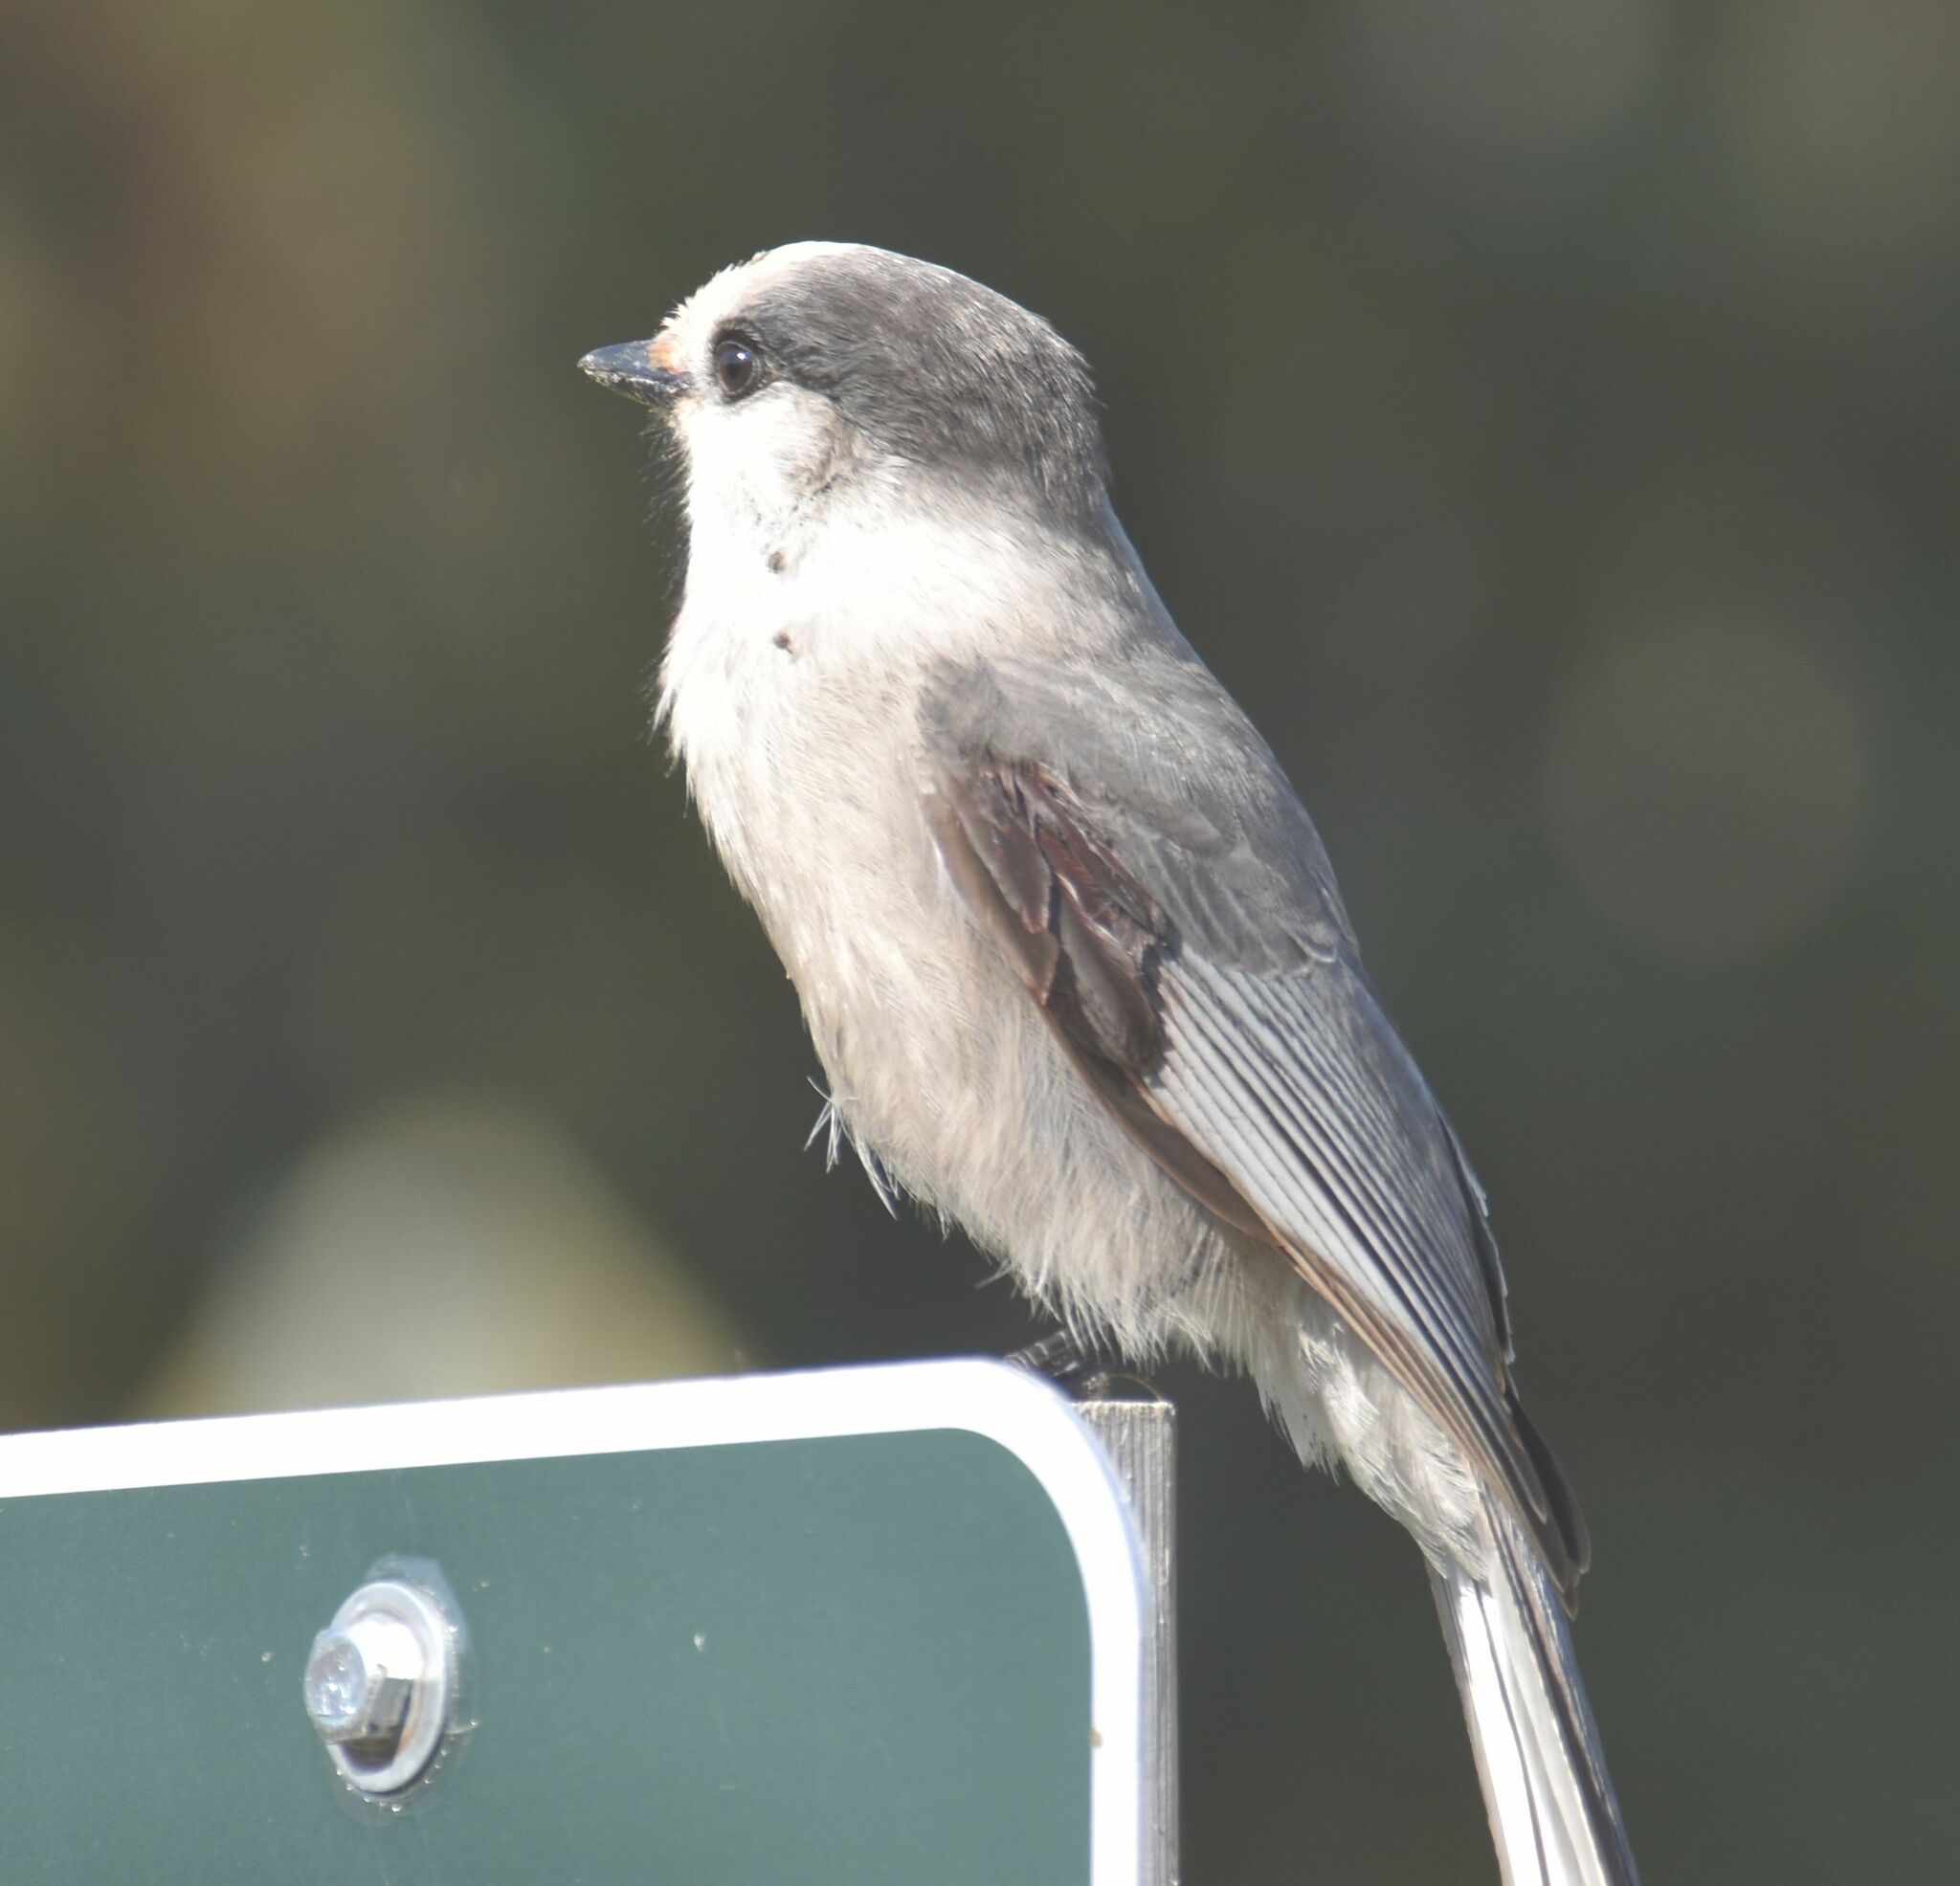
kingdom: Animalia
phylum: Chordata
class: Aves
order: Passeriformes
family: Corvidae
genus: Perisoreus
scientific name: Perisoreus canadensis
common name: Gray jay
